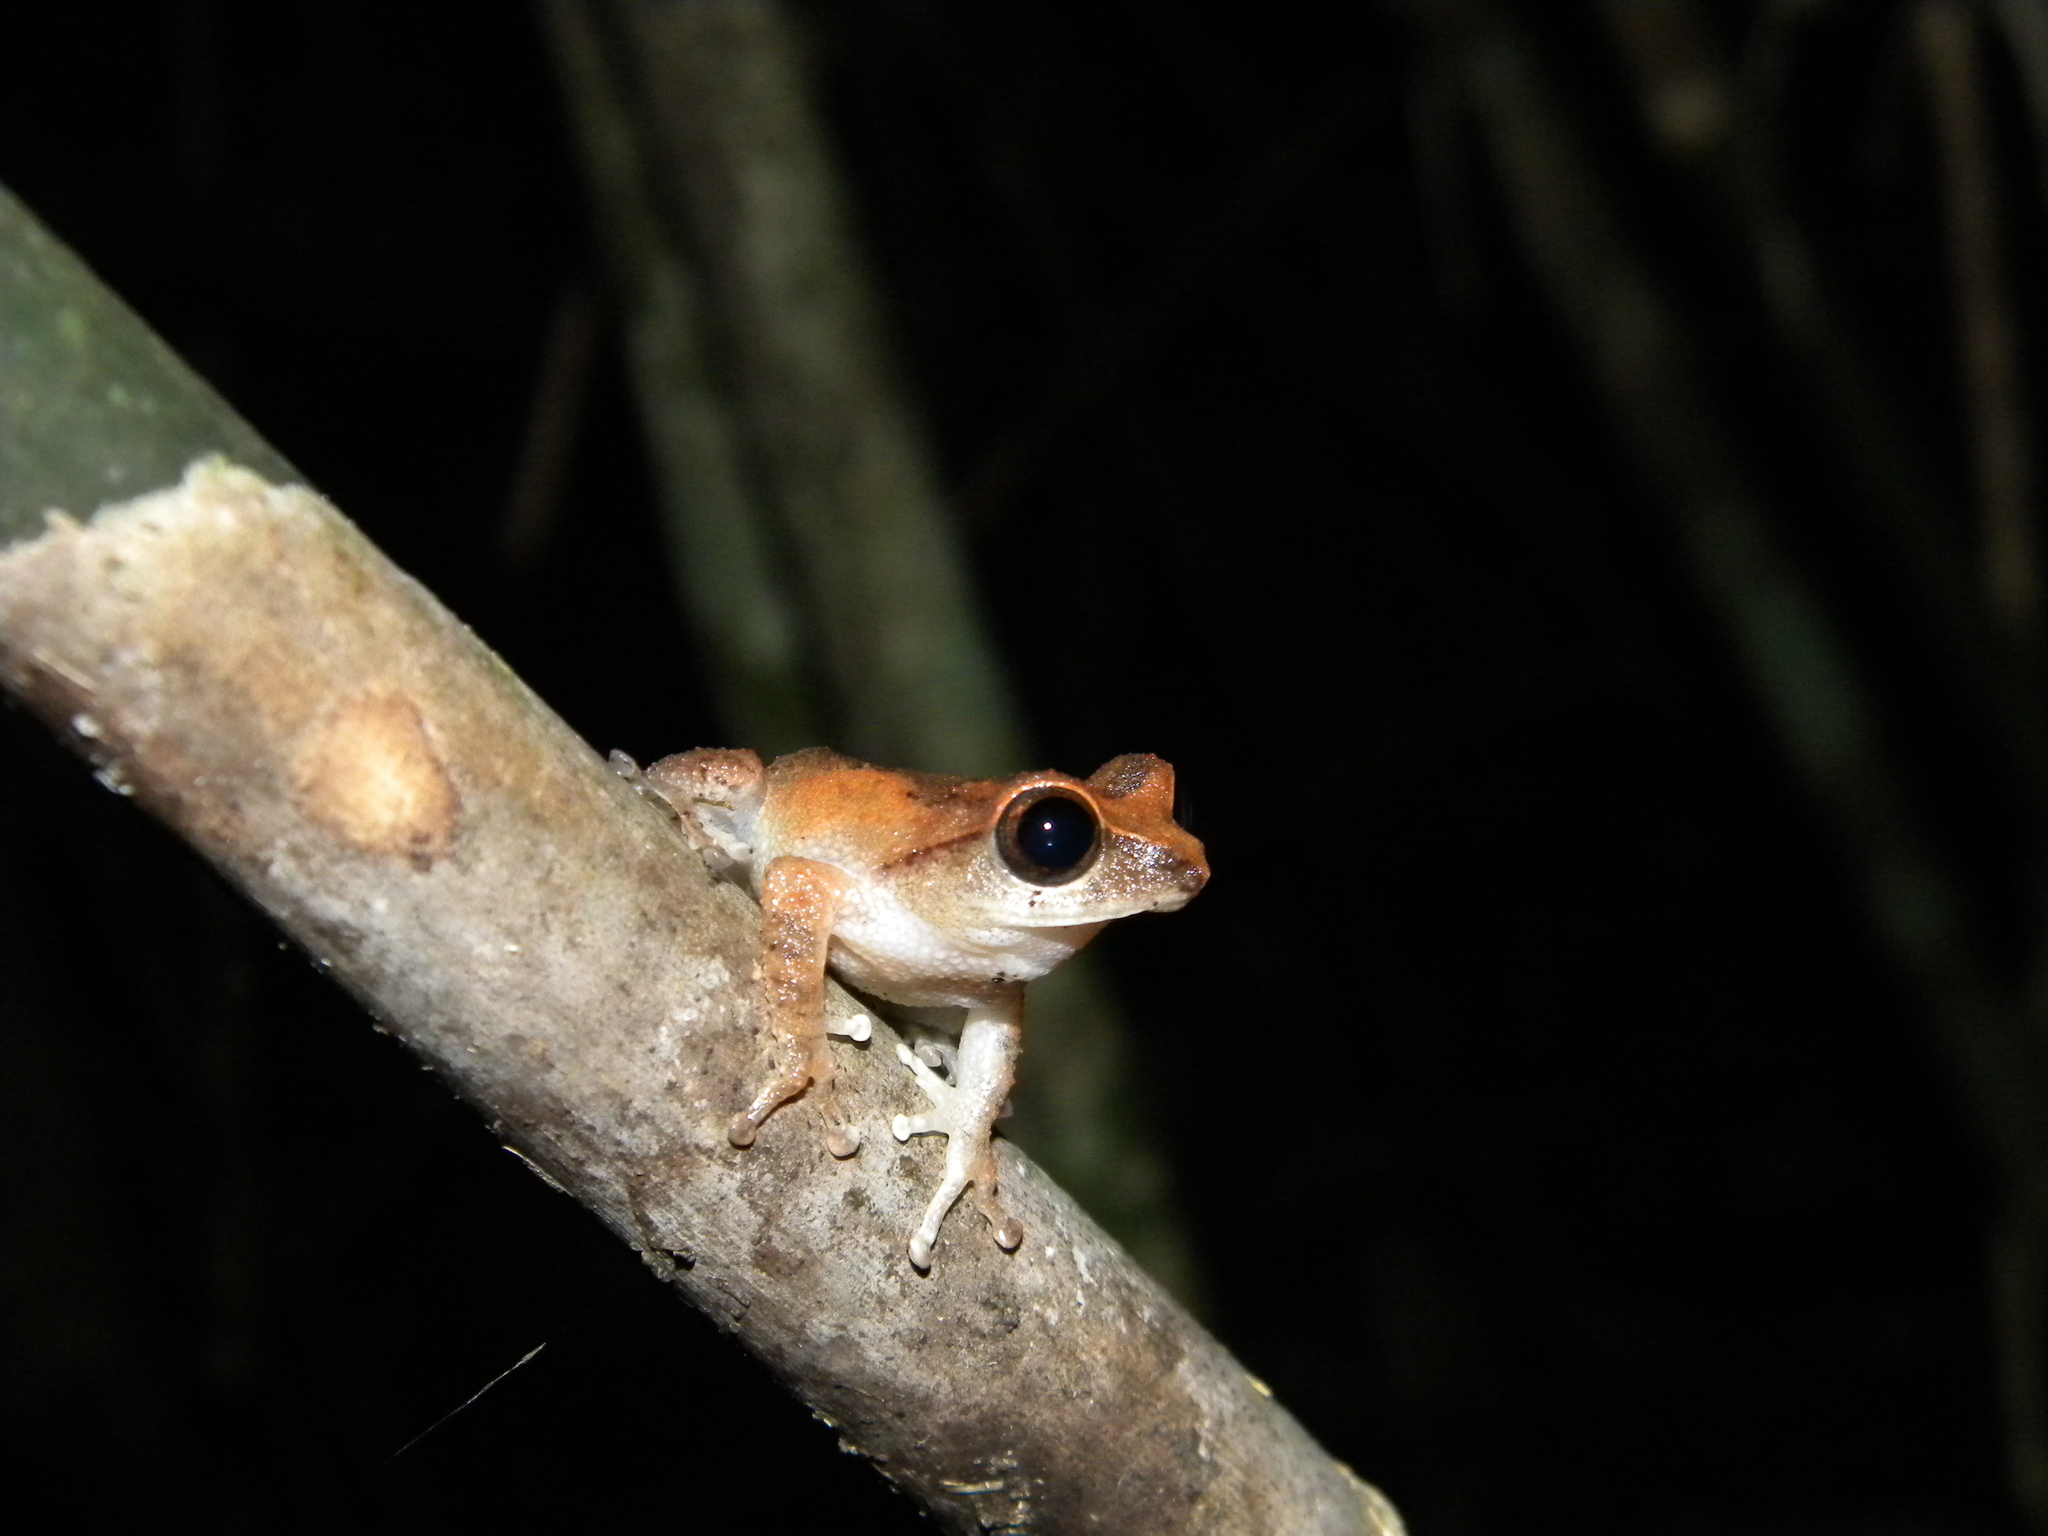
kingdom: Animalia
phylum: Chordata
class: Amphibia
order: Anura
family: Rhacophoridae
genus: Raorchestes
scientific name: Raorchestes johnceei
